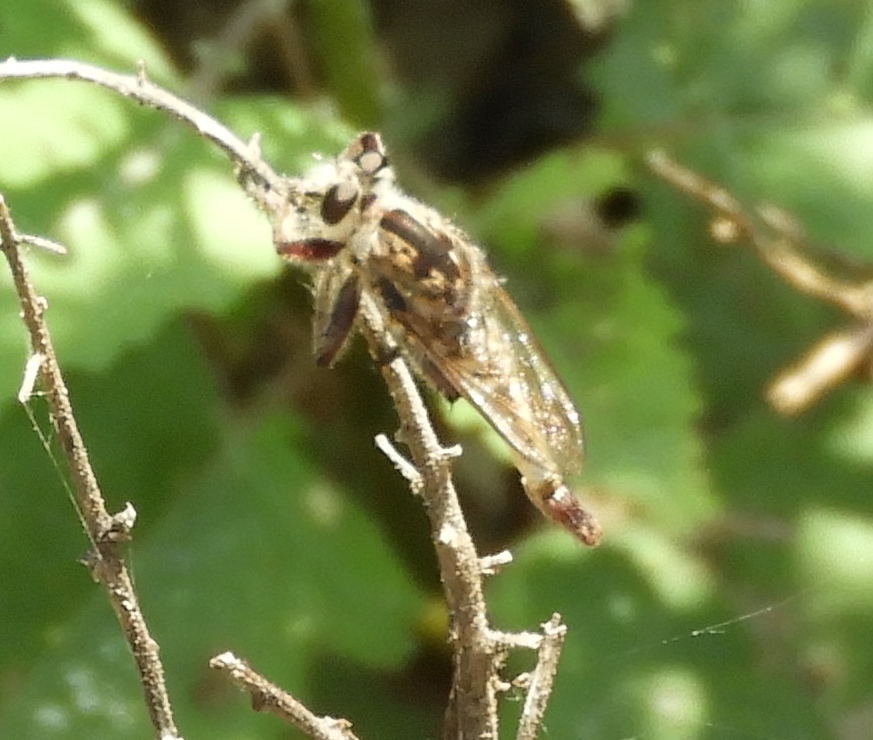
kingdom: Animalia
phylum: Arthropoda
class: Insecta
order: Diptera
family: Asilidae
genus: Efferia
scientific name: Efferia
